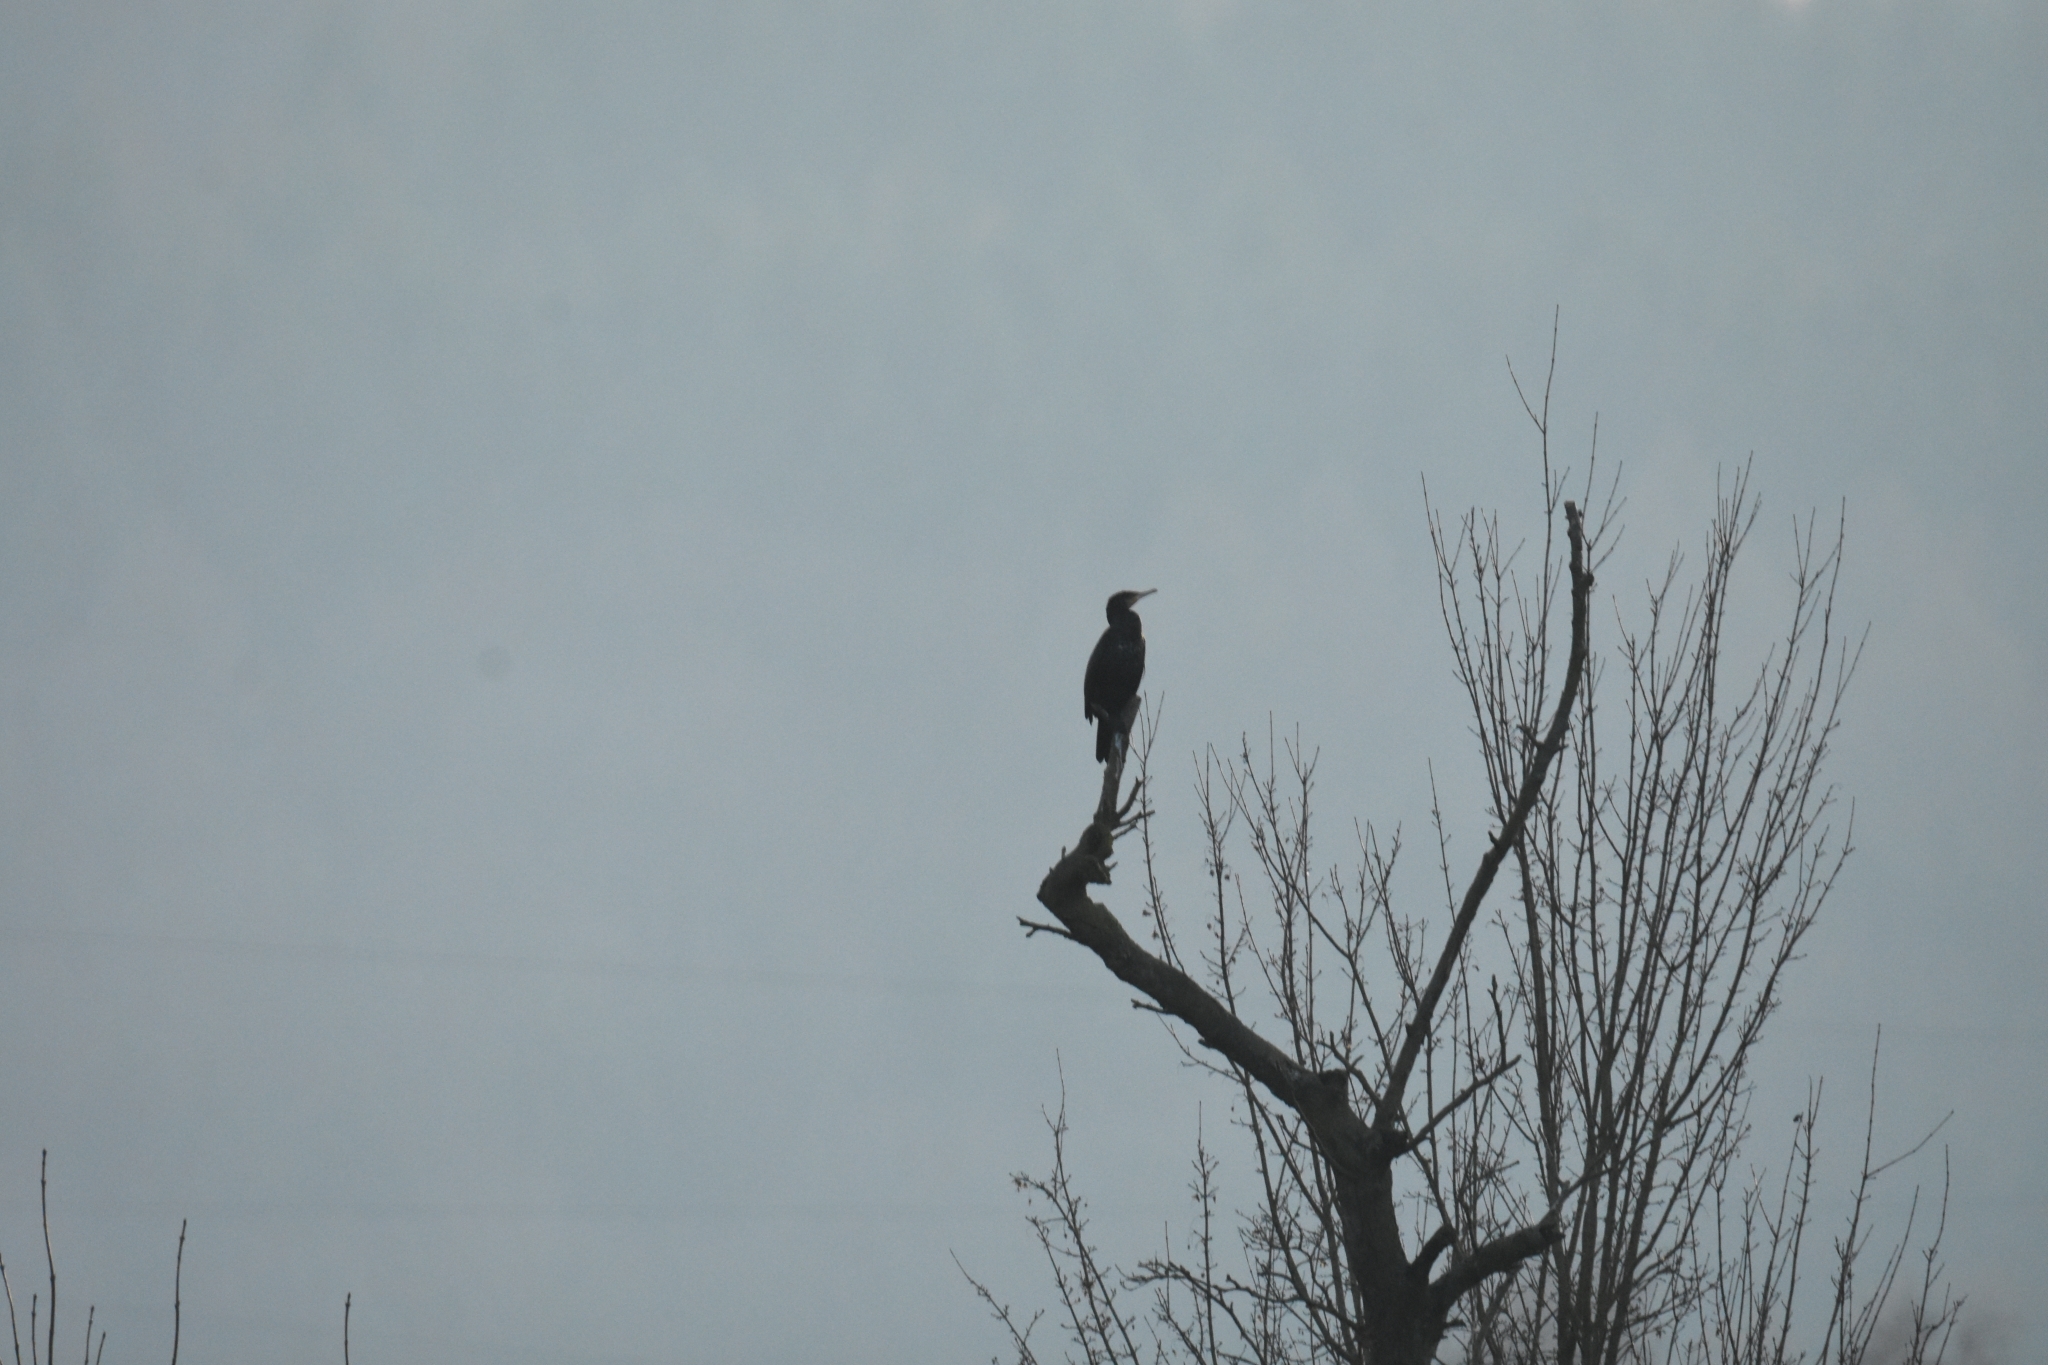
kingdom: Animalia
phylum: Chordata
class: Aves
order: Suliformes
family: Phalacrocoracidae
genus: Phalacrocorax
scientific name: Phalacrocorax carbo
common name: Great cormorant
